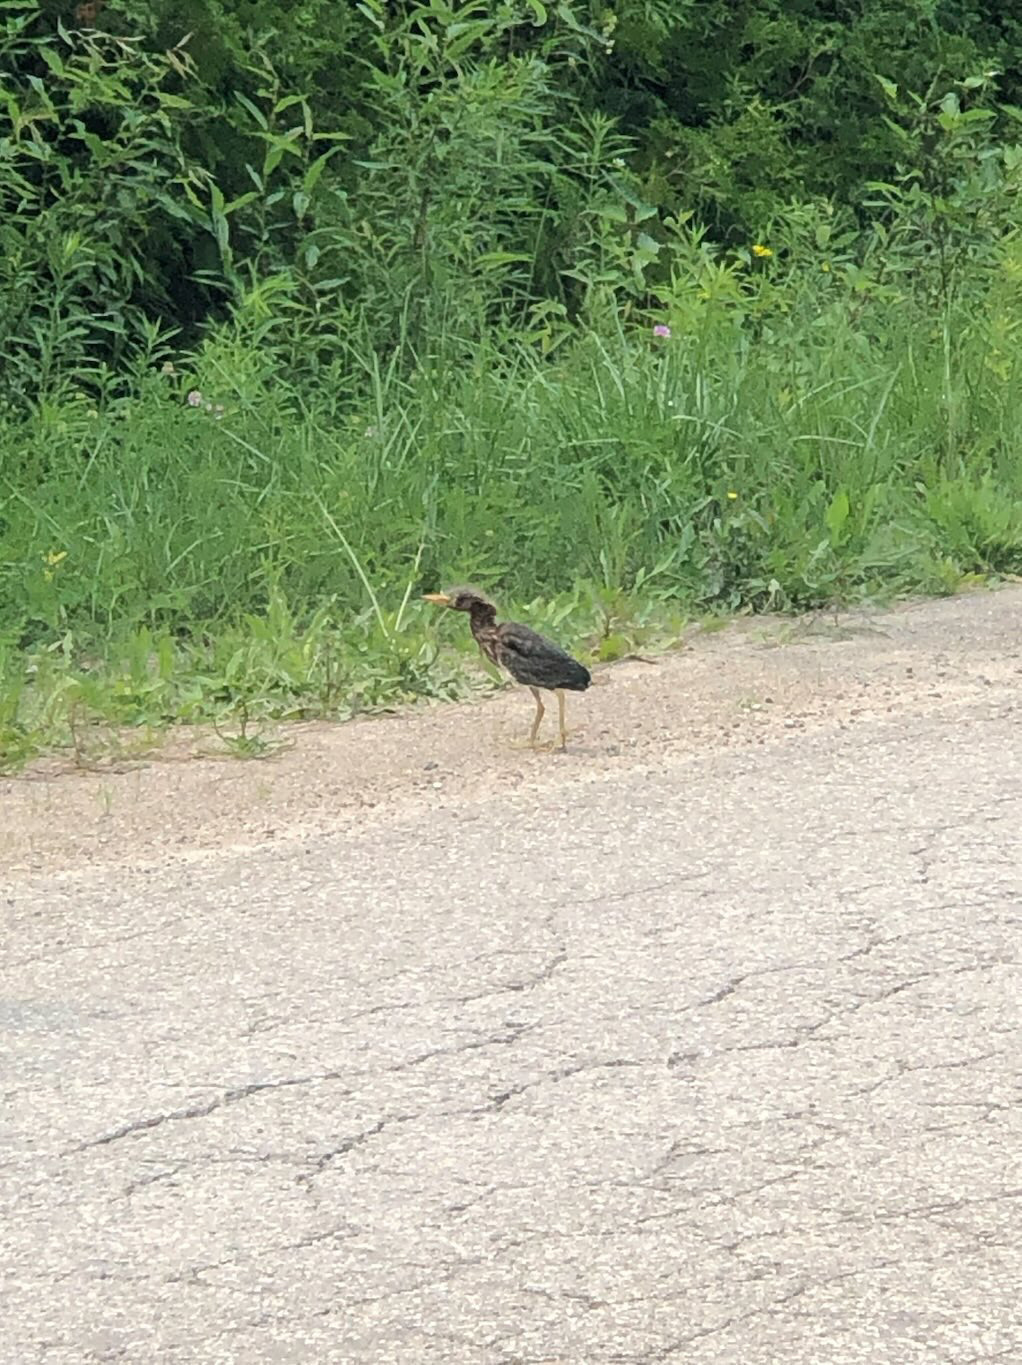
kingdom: Animalia
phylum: Chordata
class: Aves
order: Pelecaniformes
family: Ardeidae
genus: Butorides
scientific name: Butorides virescens
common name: Green heron
